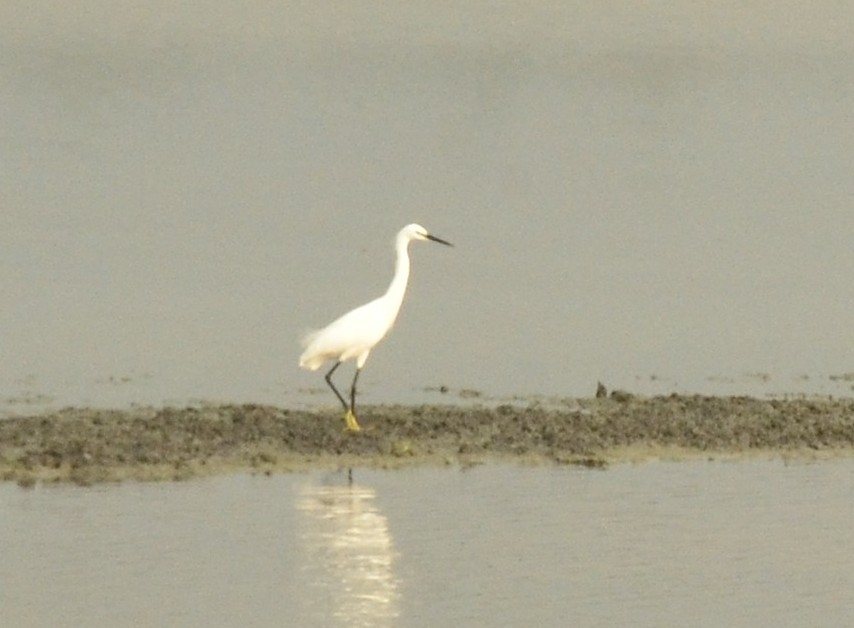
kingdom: Animalia
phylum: Chordata
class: Aves
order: Pelecaniformes
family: Ardeidae
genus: Egretta
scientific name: Egretta garzetta
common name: Little egret
